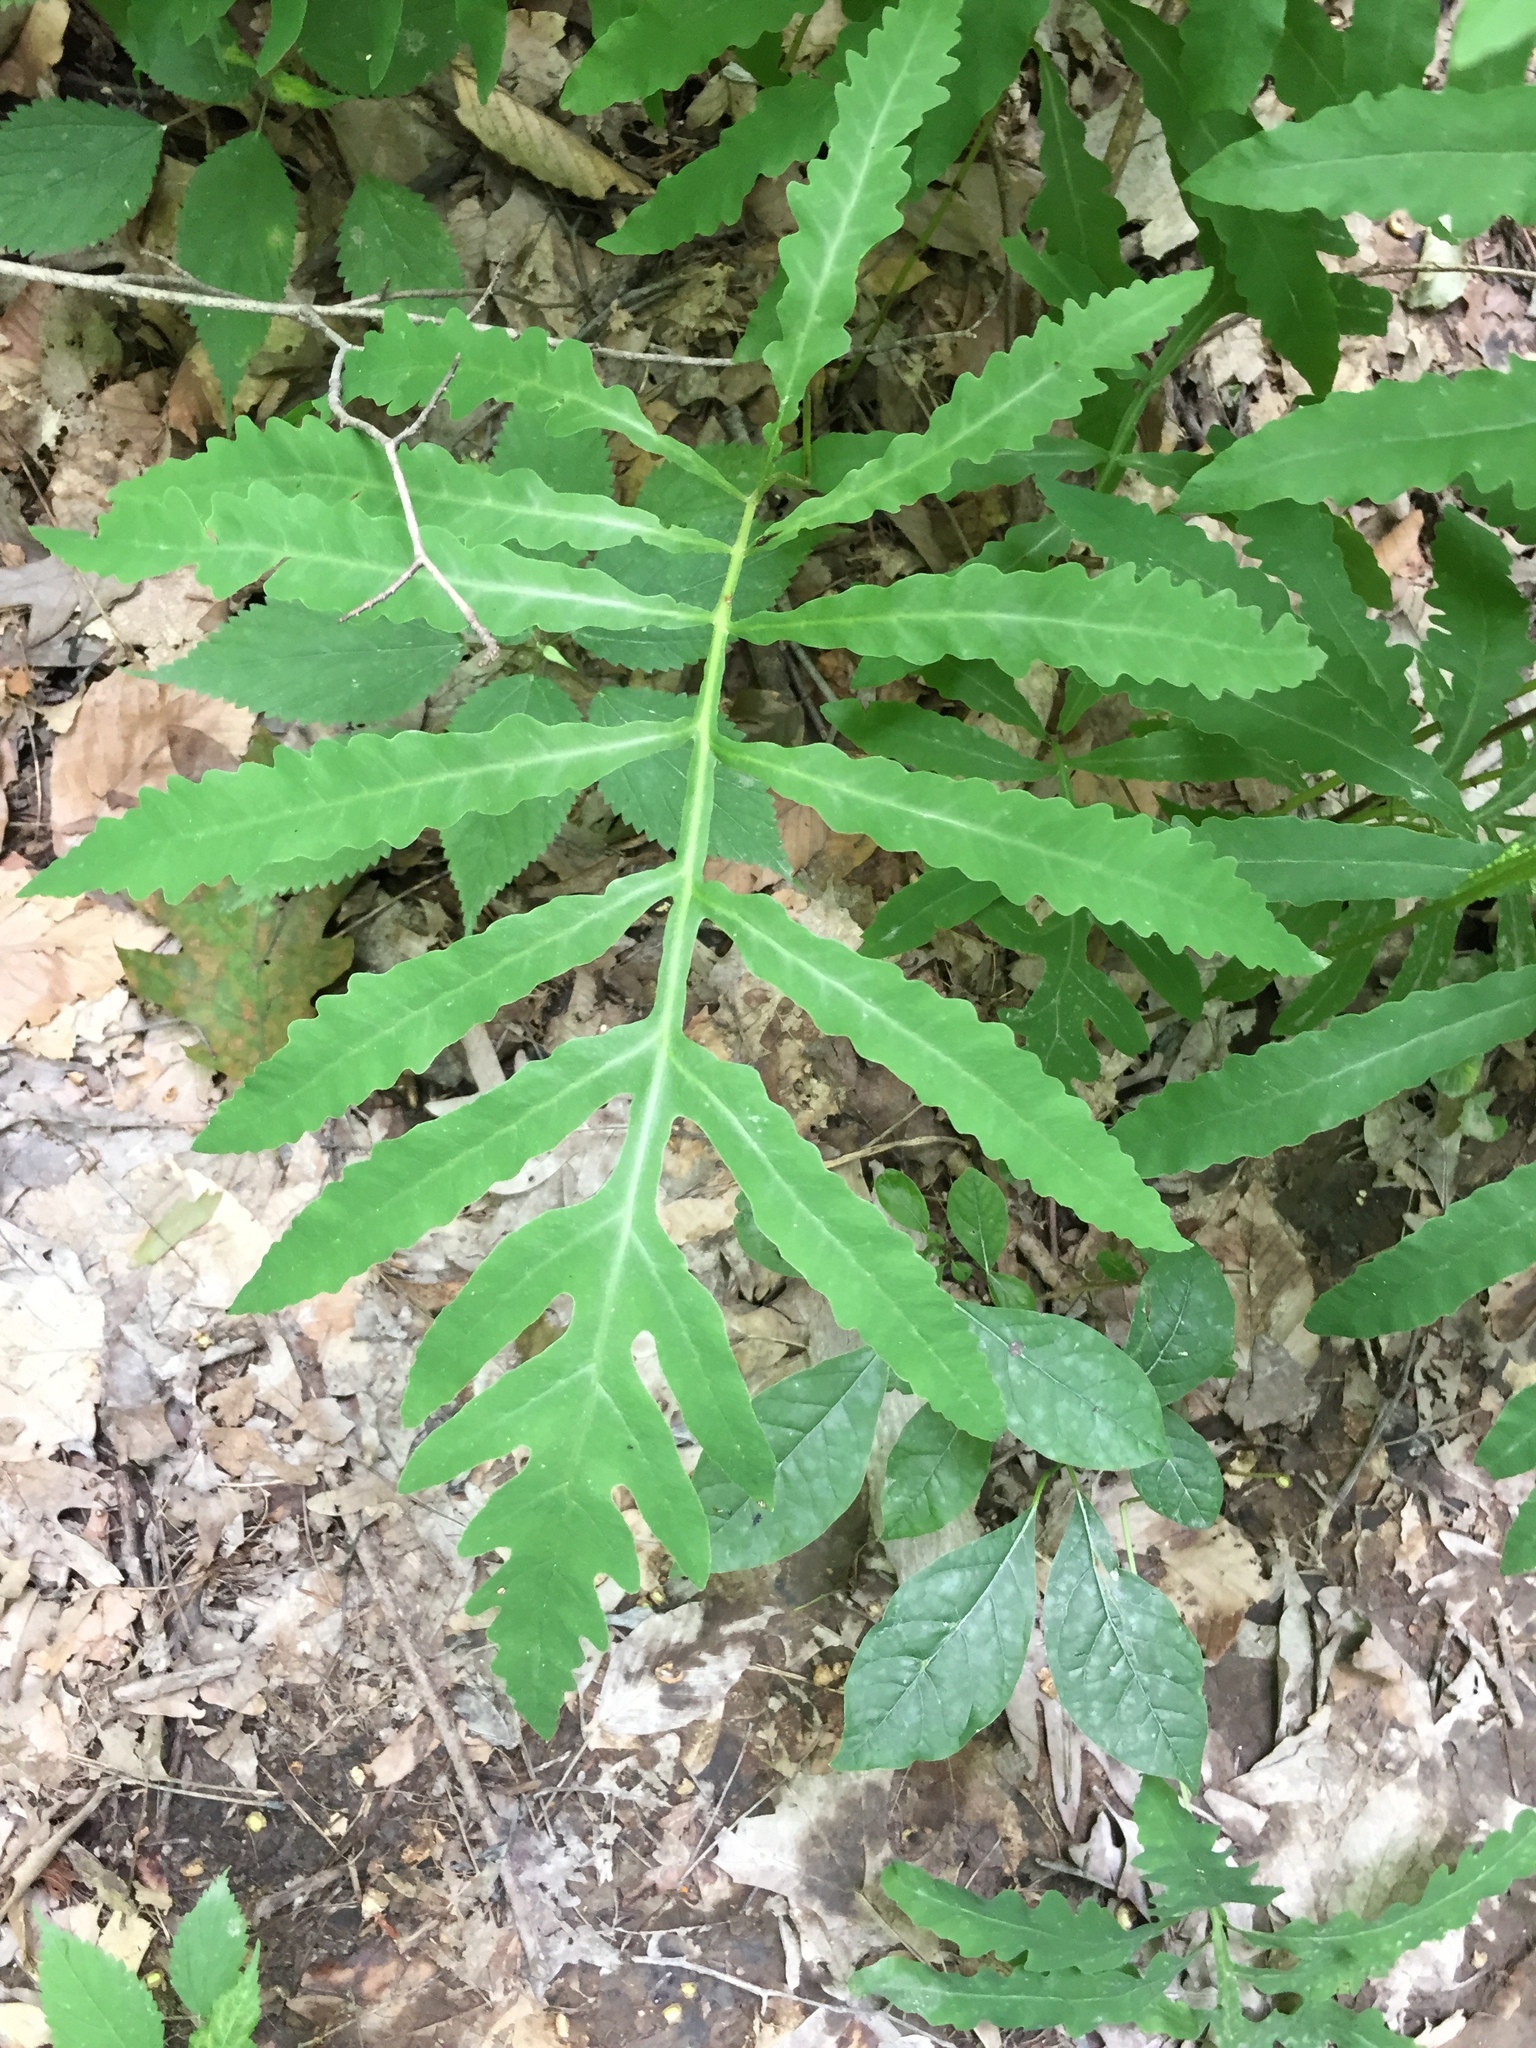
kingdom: Plantae
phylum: Tracheophyta
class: Polypodiopsida
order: Polypodiales
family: Onocleaceae
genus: Onoclea
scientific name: Onoclea sensibilis
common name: Sensitive fern
